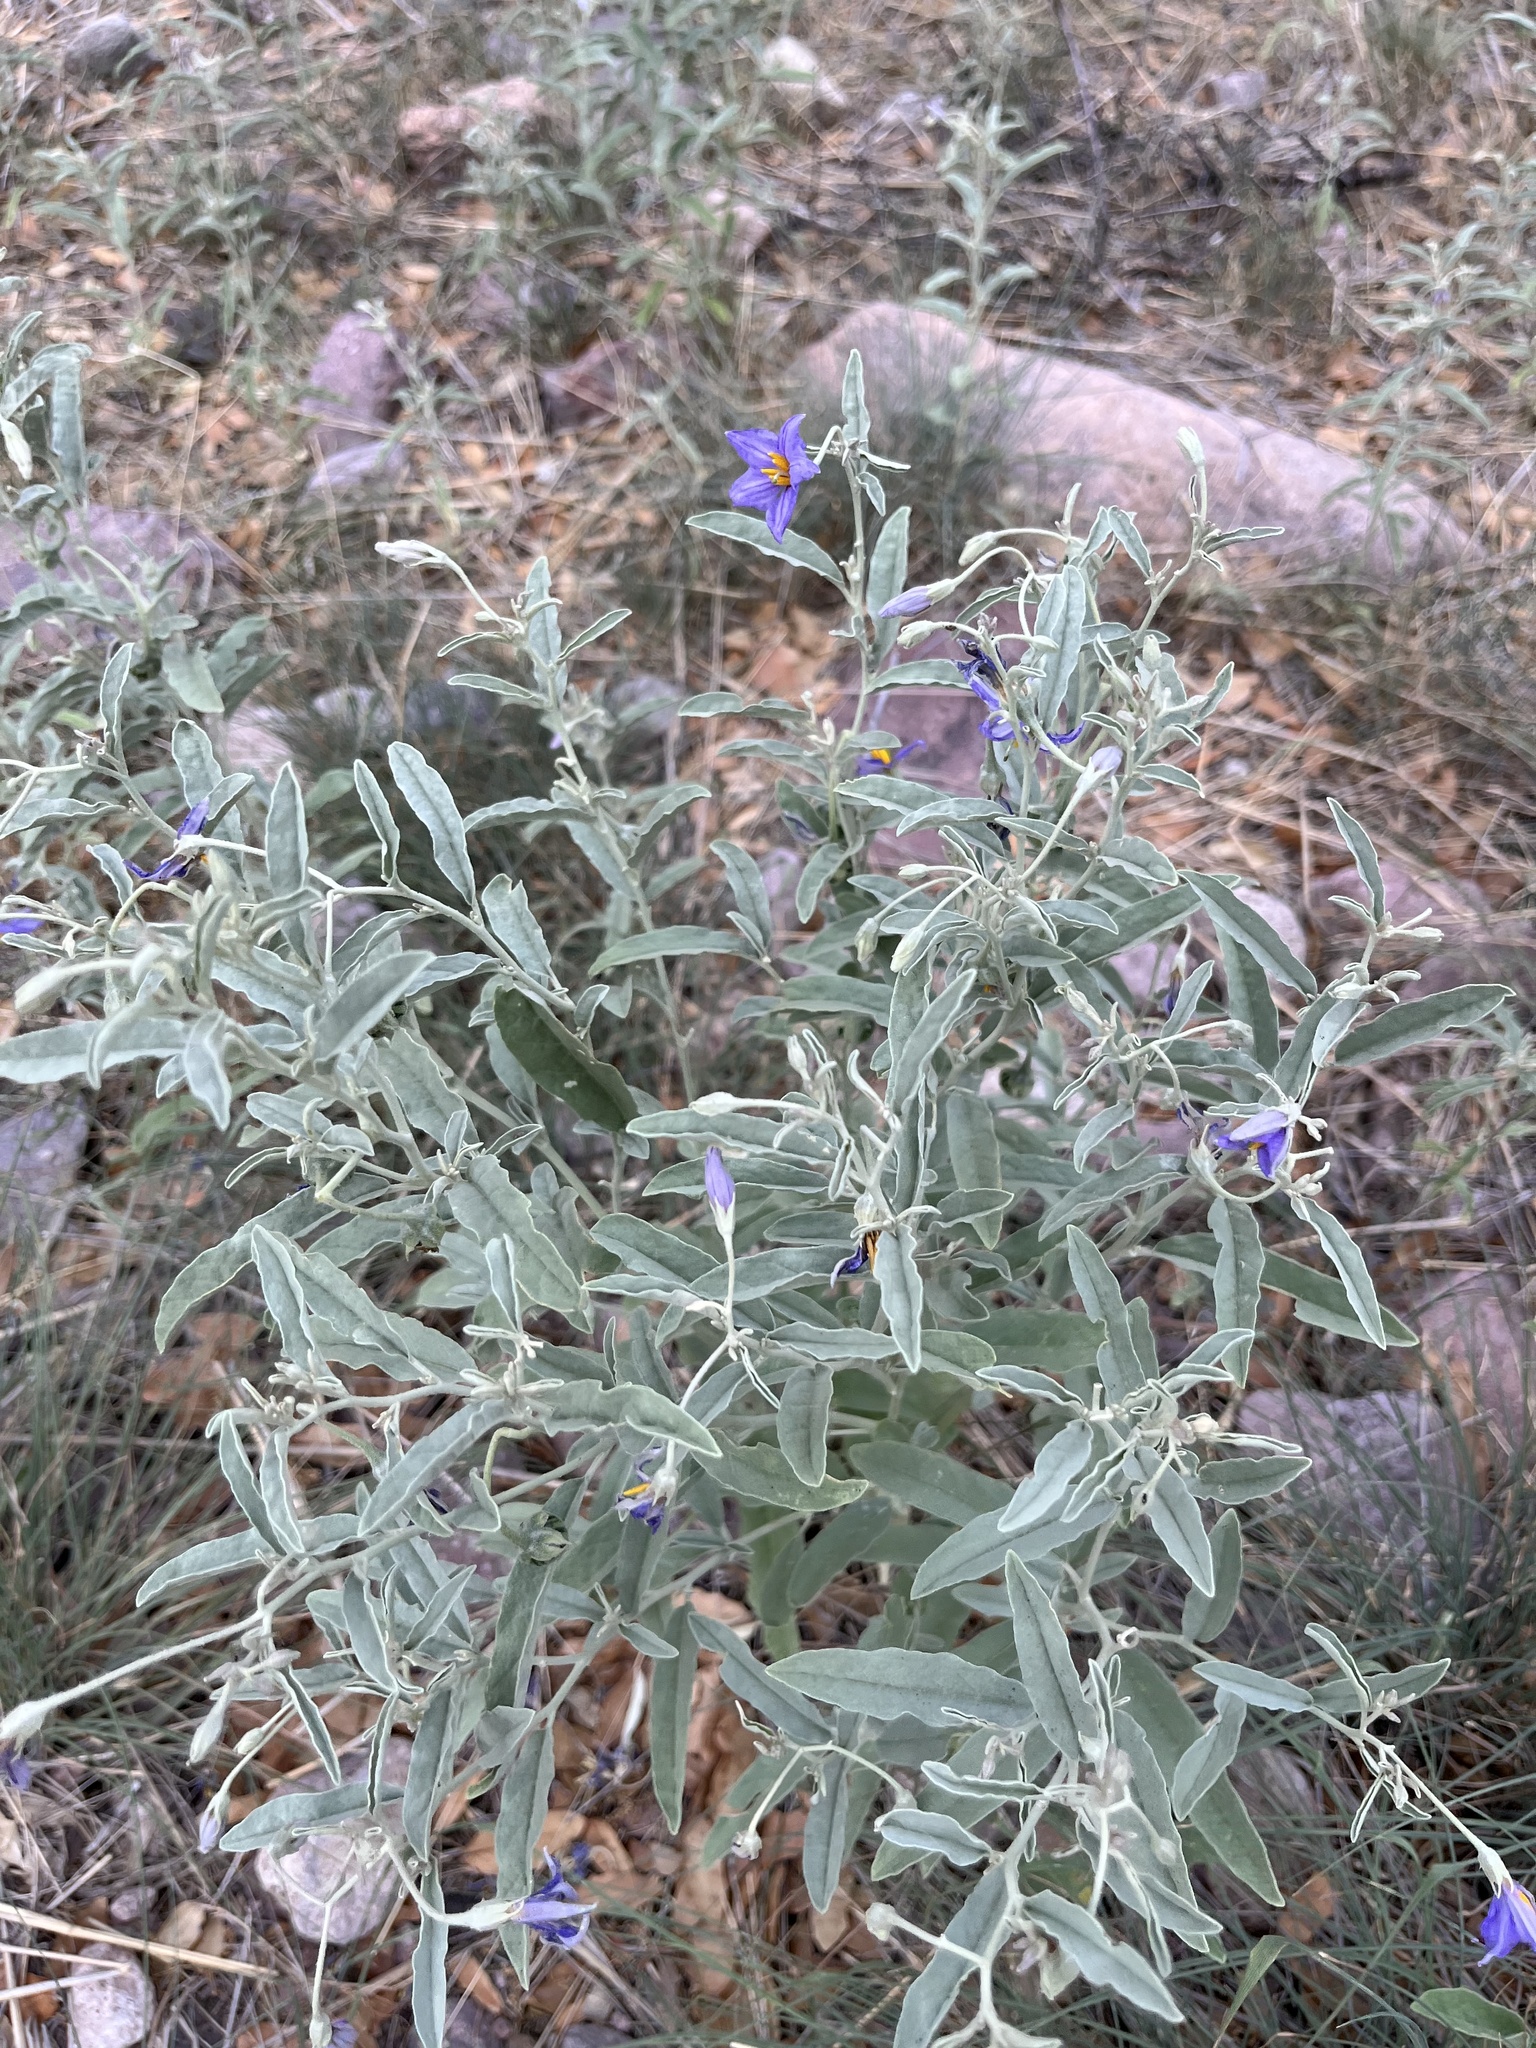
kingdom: Plantae
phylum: Tracheophyta
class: Magnoliopsida
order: Solanales
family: Solanaceae
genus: Solanum
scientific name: Solanum elaeagnifolium
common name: Silverleaf nightshade
